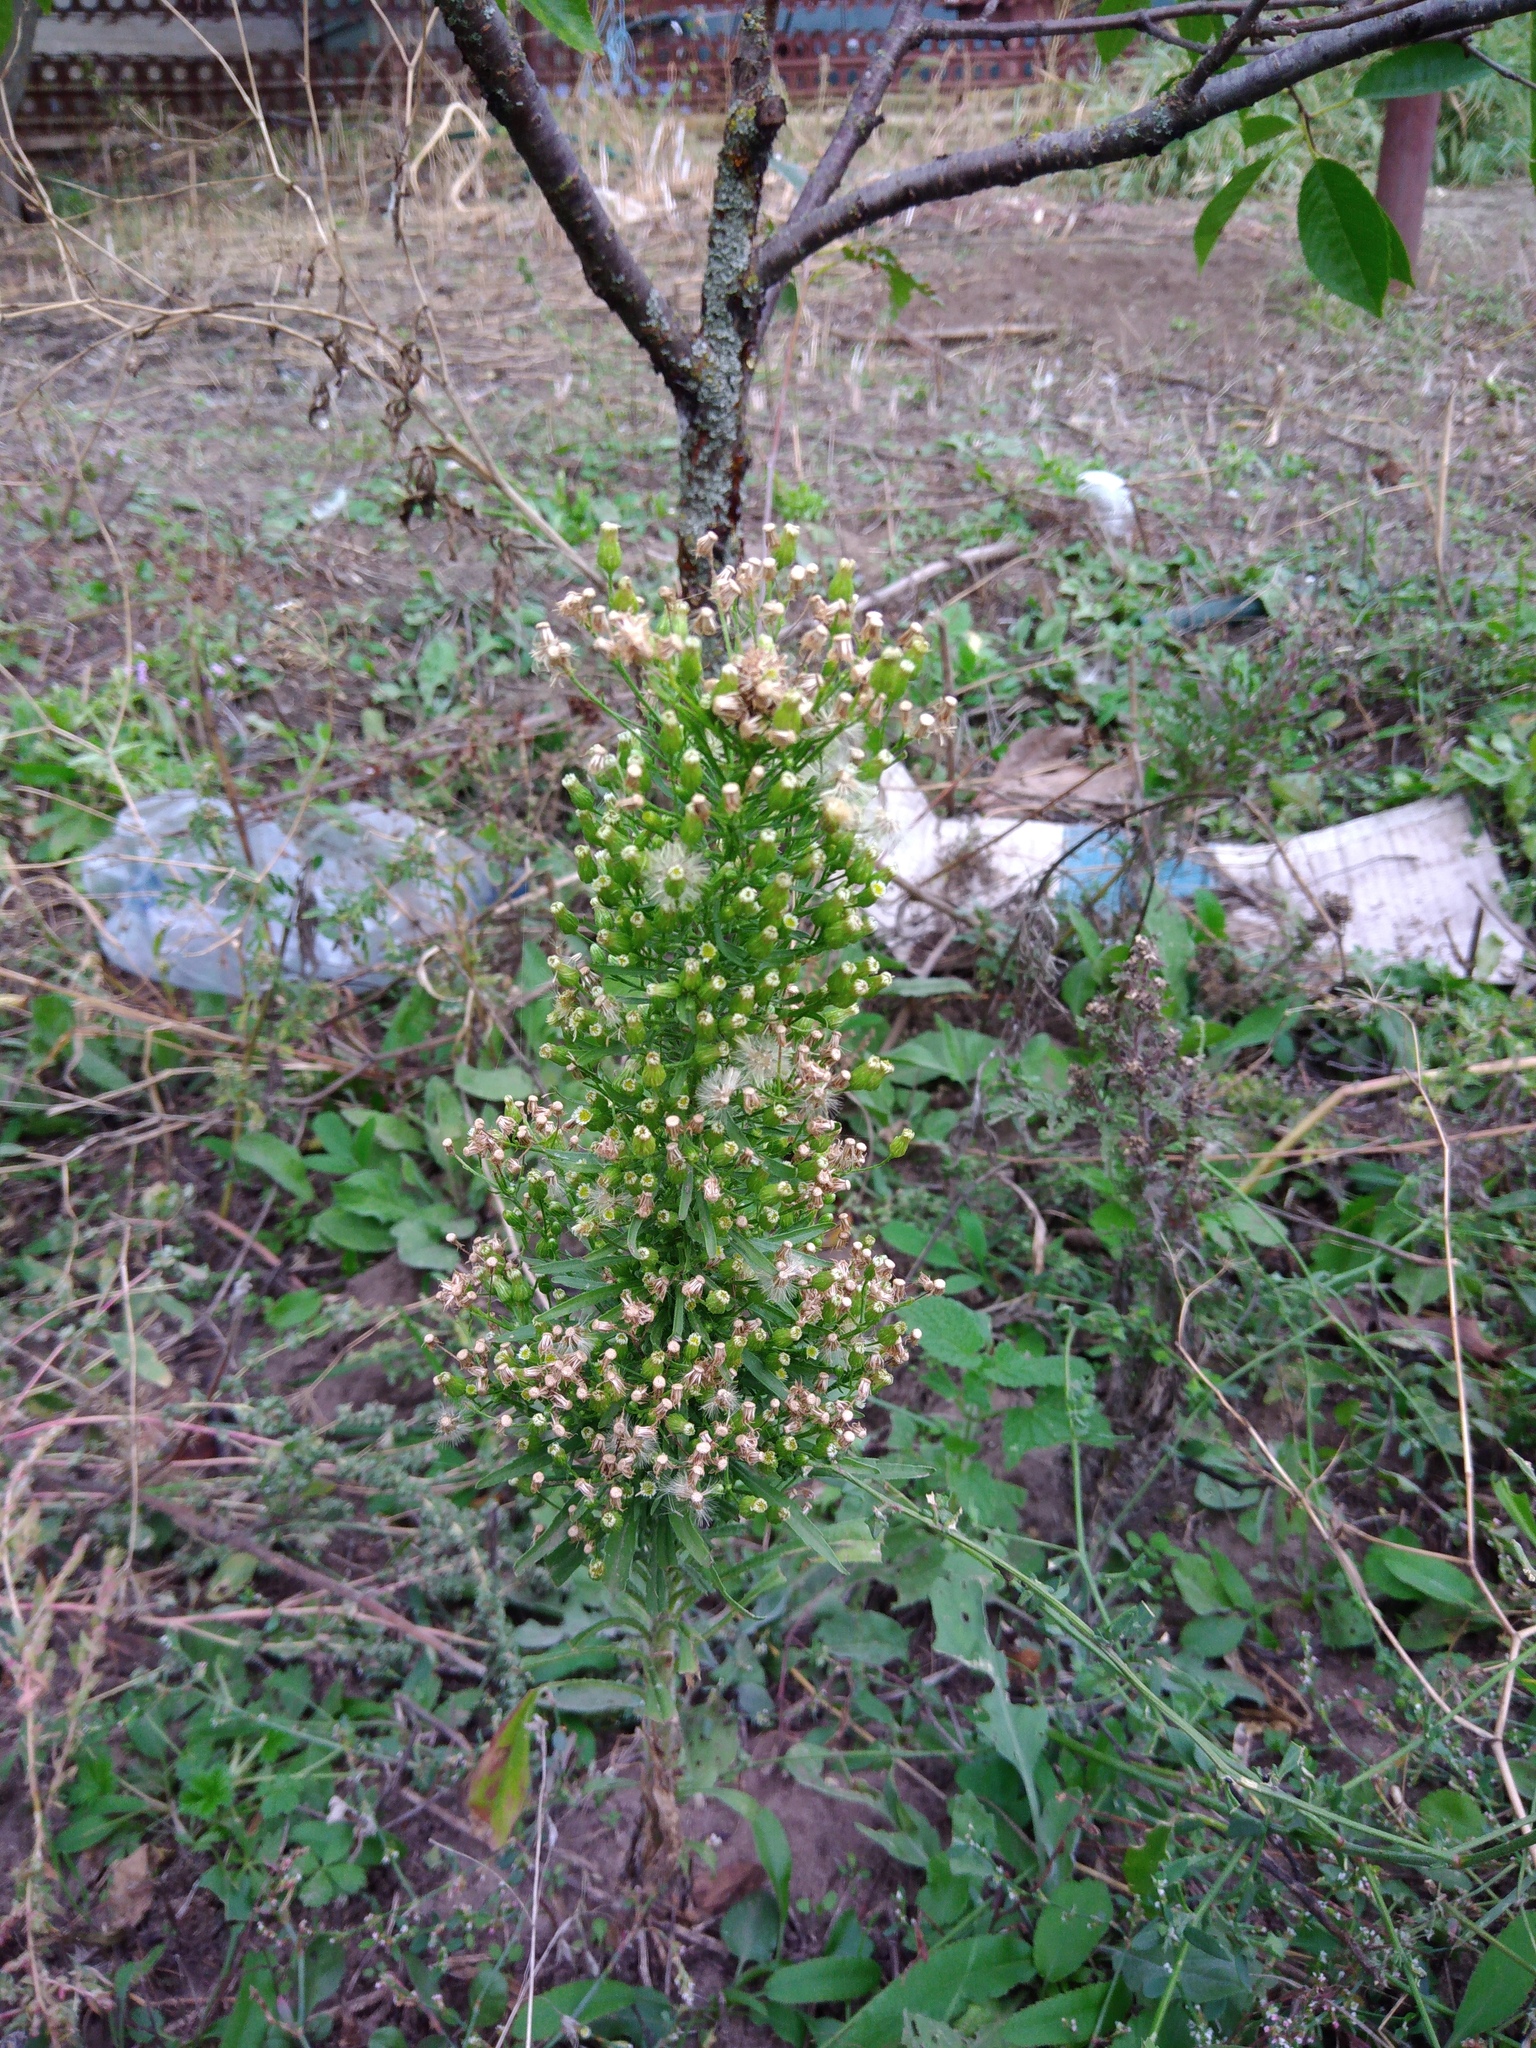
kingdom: Plantae
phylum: Tracheophyta
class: Magnoliopsida
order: Asterales
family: Asteraceae
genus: Erigeron
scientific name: Erigeron canadensis
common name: Canadian fleabane
